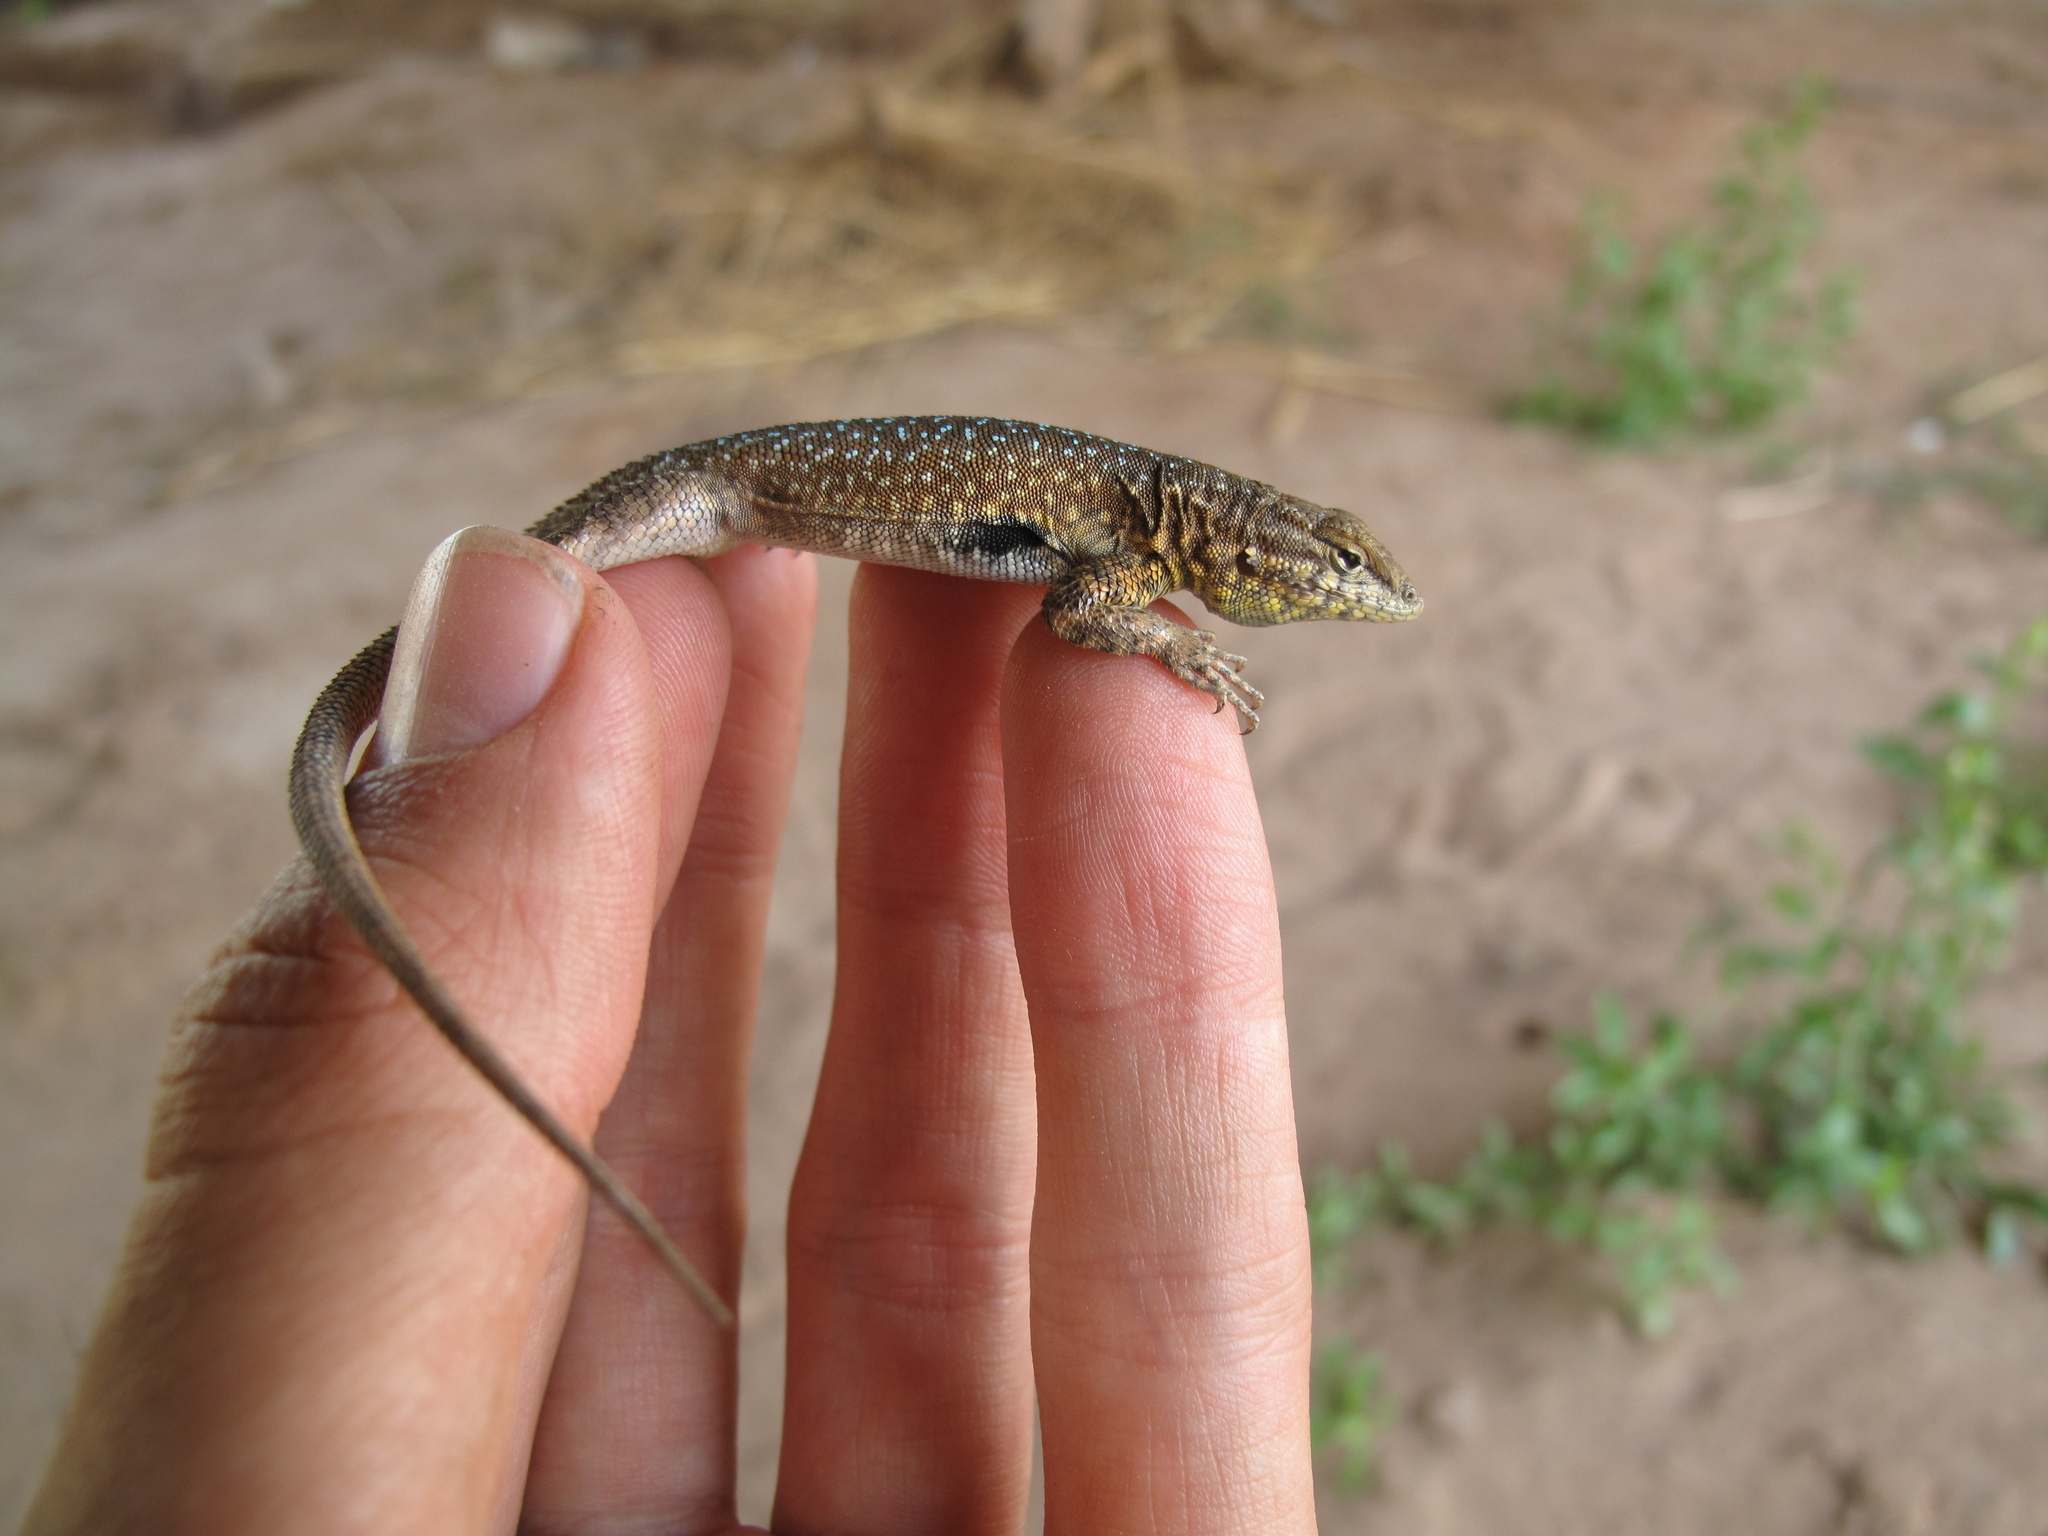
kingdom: Animalia
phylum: Chordata
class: Squamata
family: Phrynosomatidae
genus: Uta
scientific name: Uta stansburiana
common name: Side-blotched lizard
